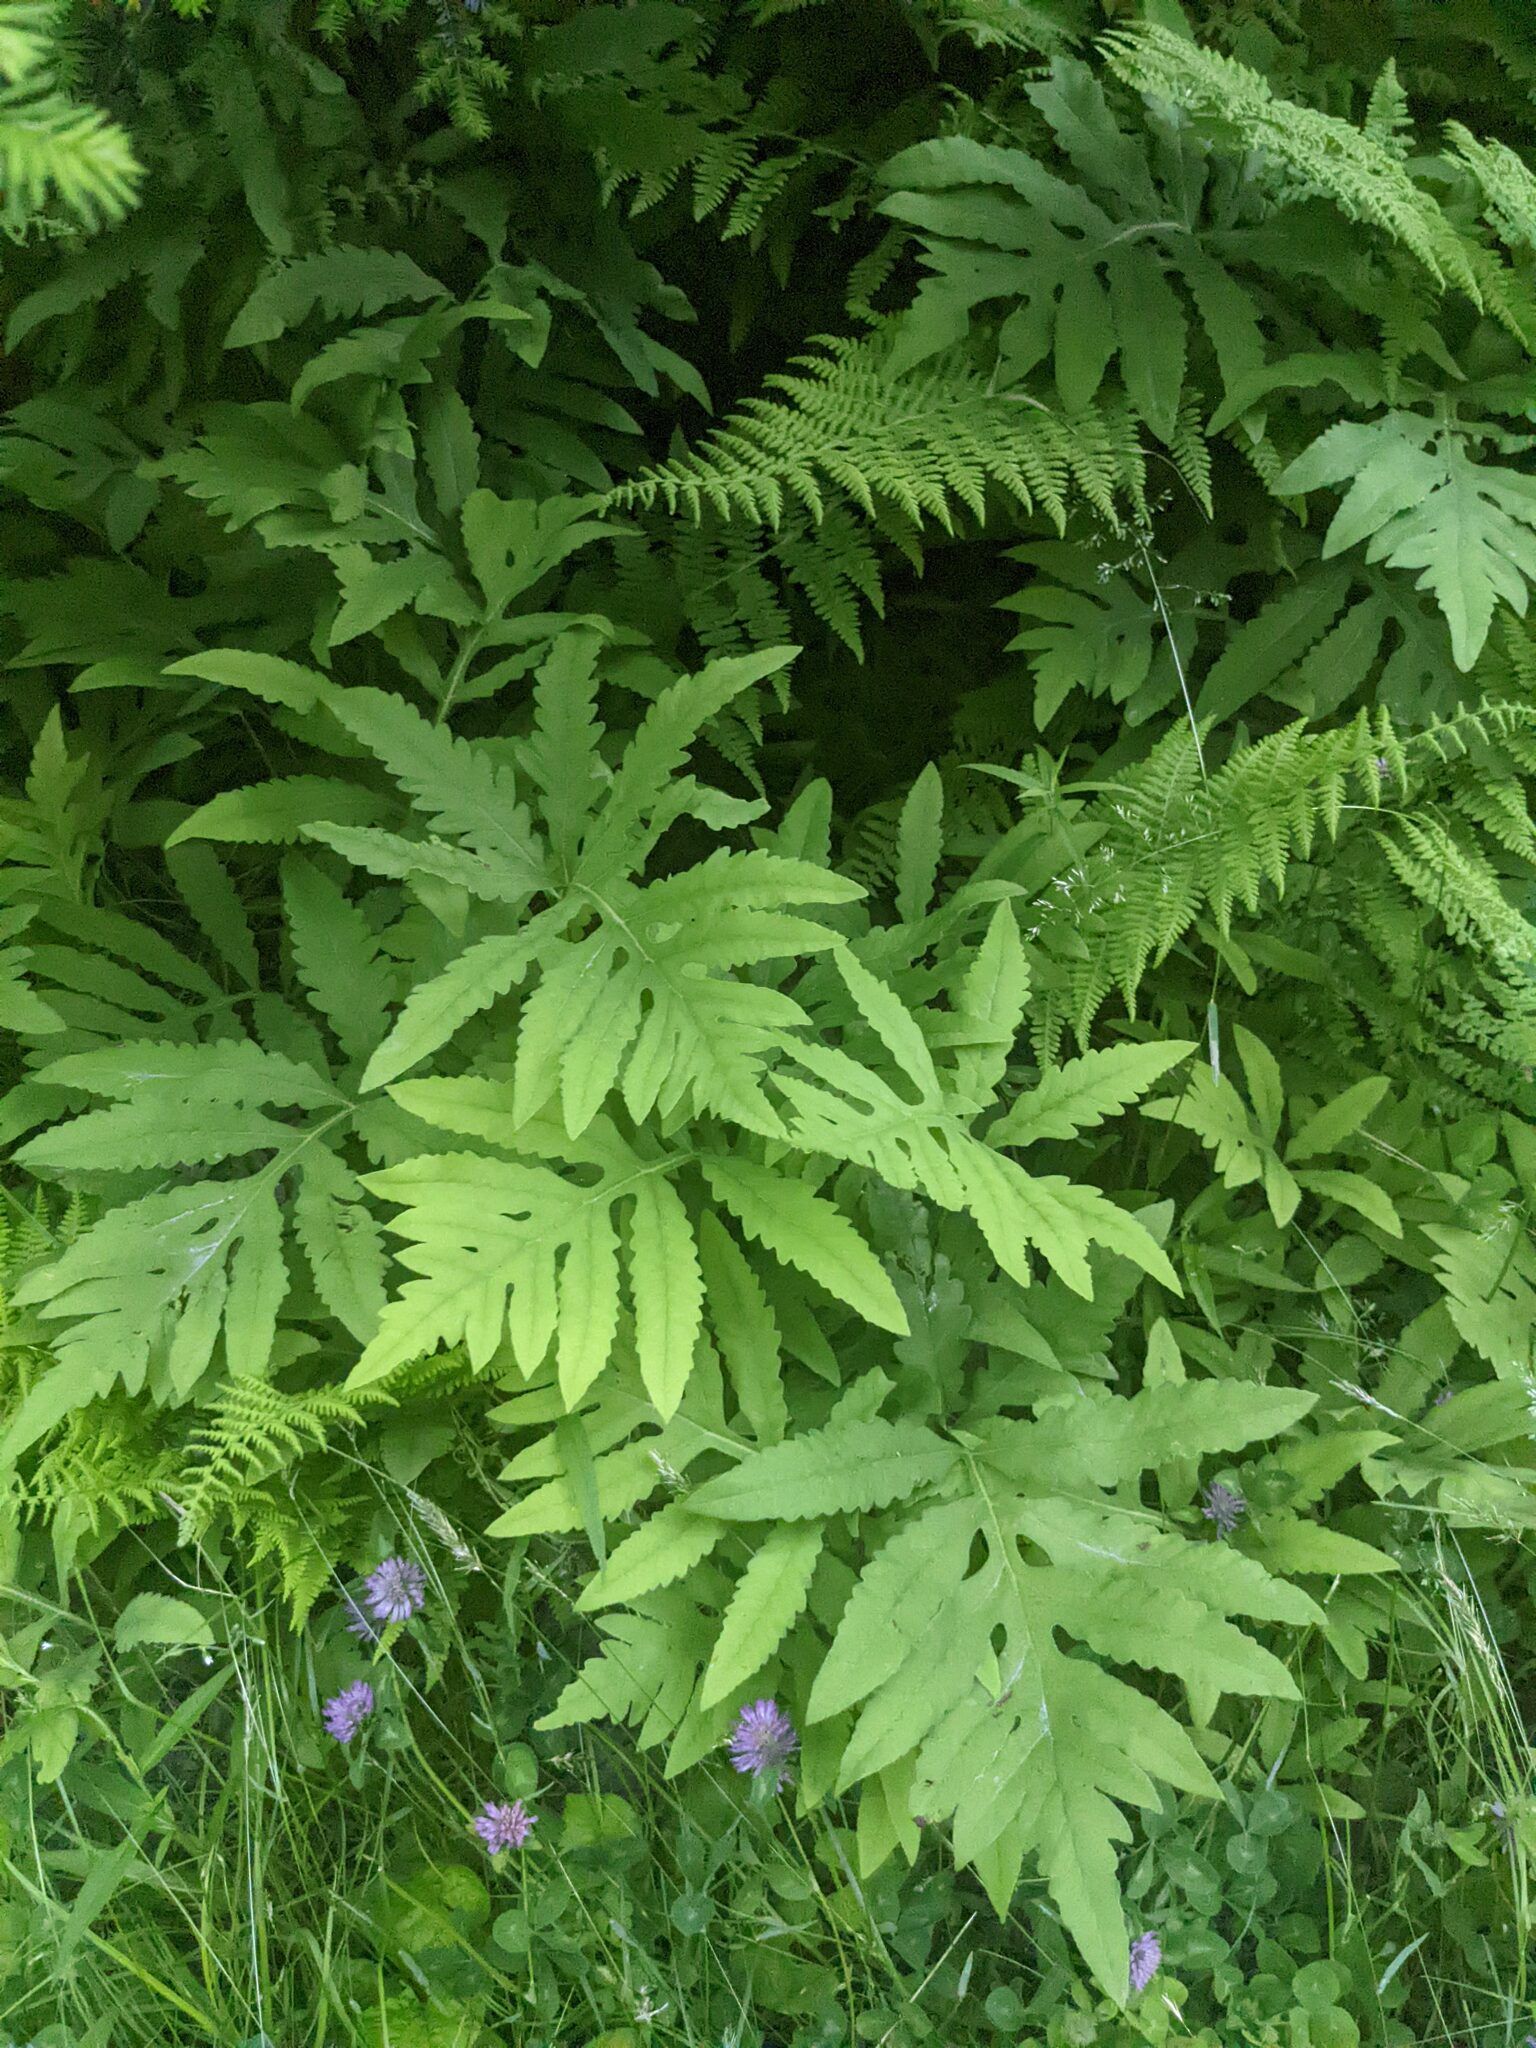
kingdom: Plantae
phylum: Tracheophyta
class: Polypodiopsida
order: Polypodiales
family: Onocleaceae
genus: Onoclea
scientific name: Onoclea sensibilis
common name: Sensitive fern
